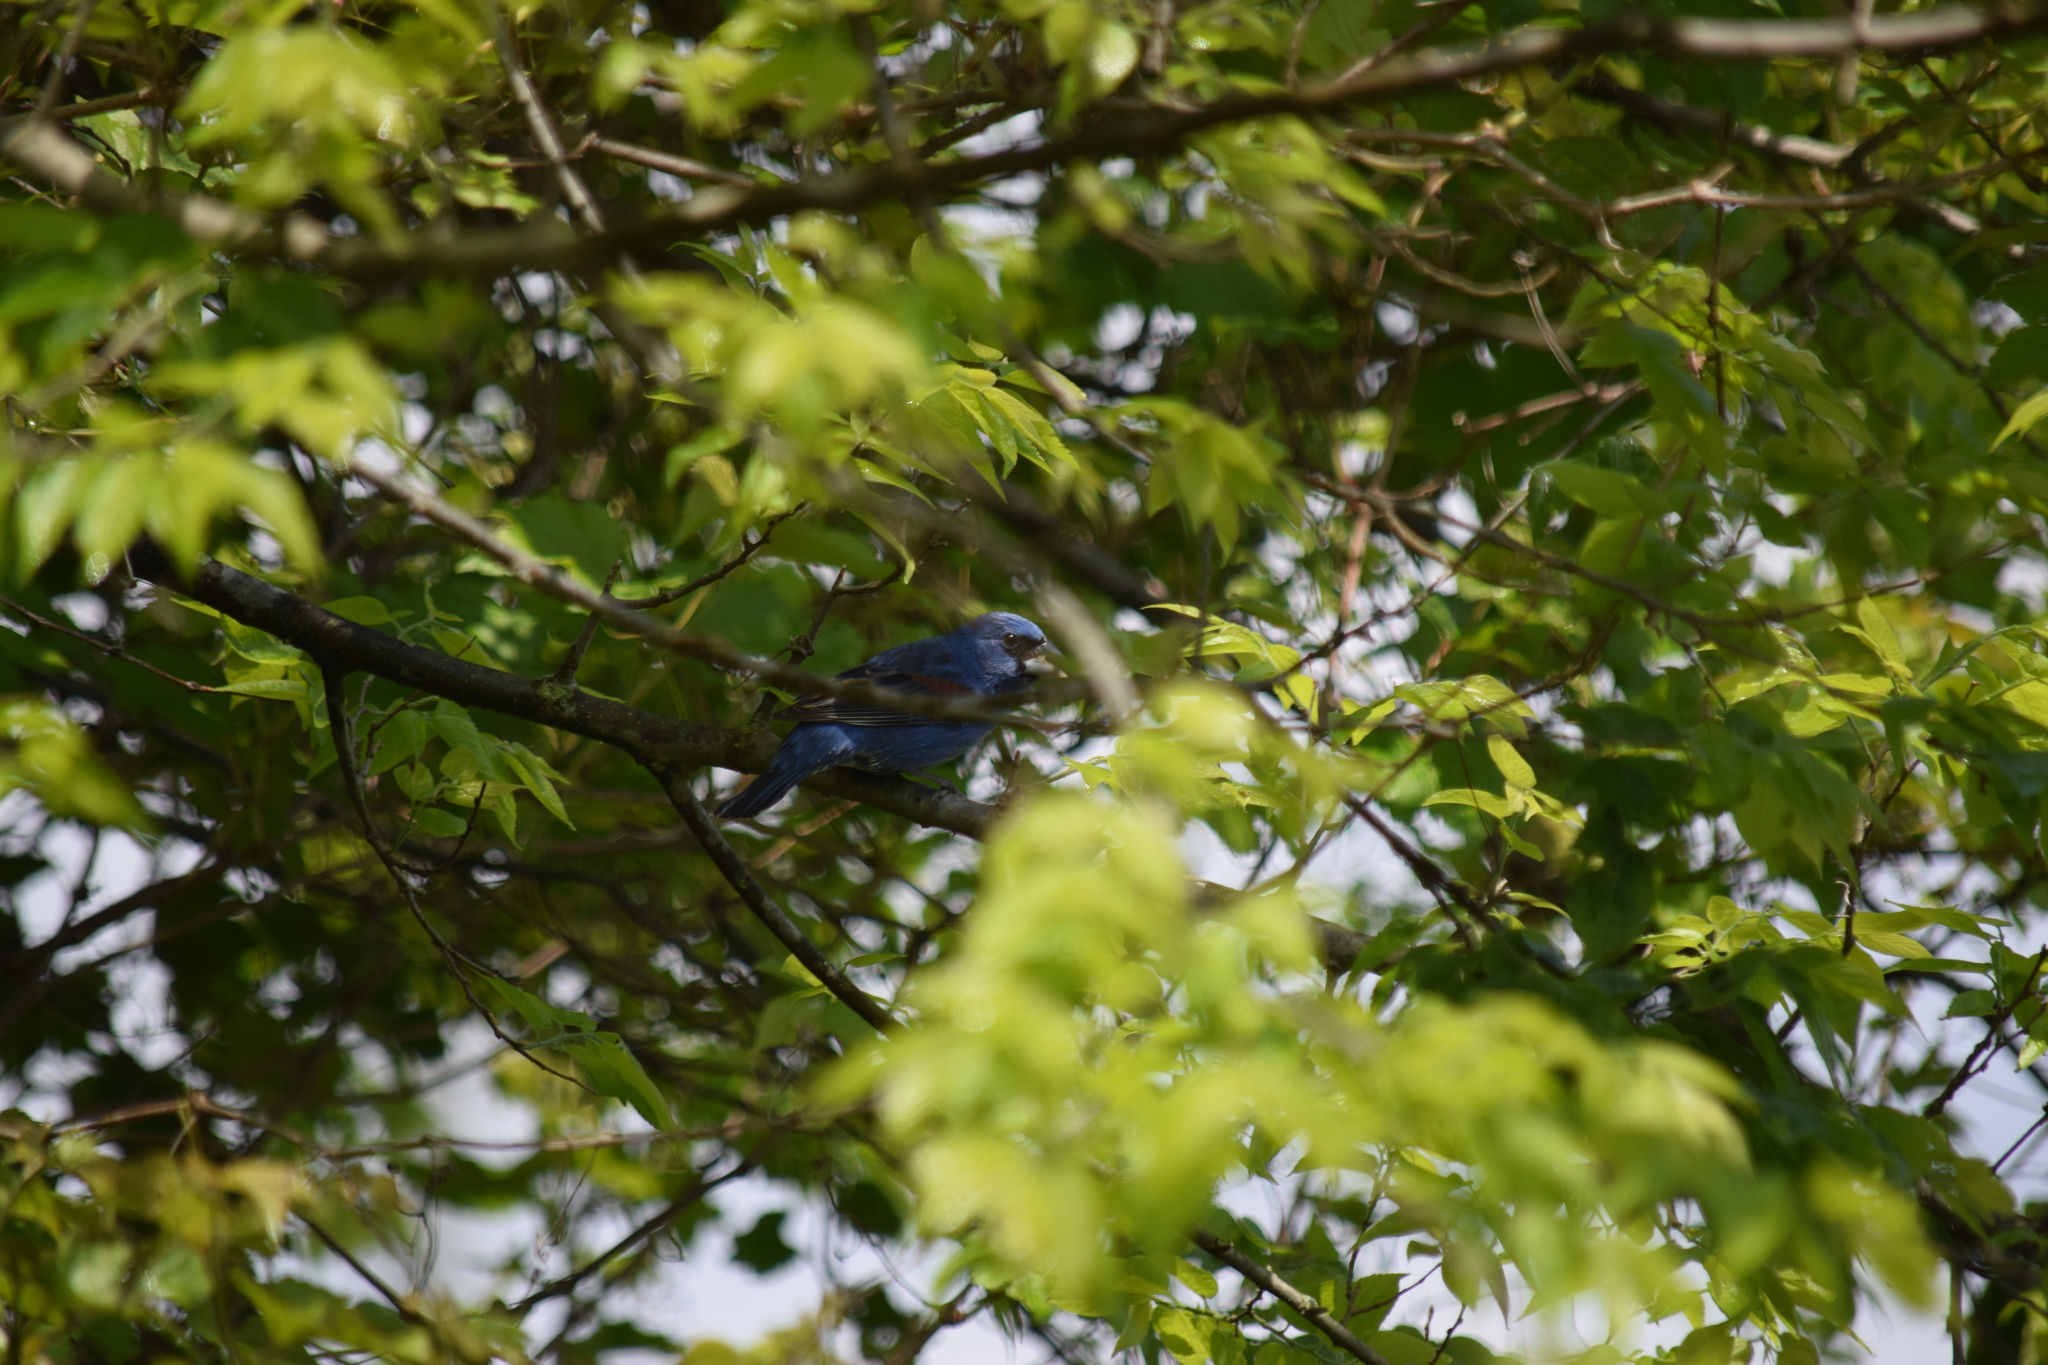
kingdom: Animalia
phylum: Chordata
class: Aves
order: Passeriformes
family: Cardinalidae
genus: Passerina
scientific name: Passerina caerulea
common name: Blue grosbeak
